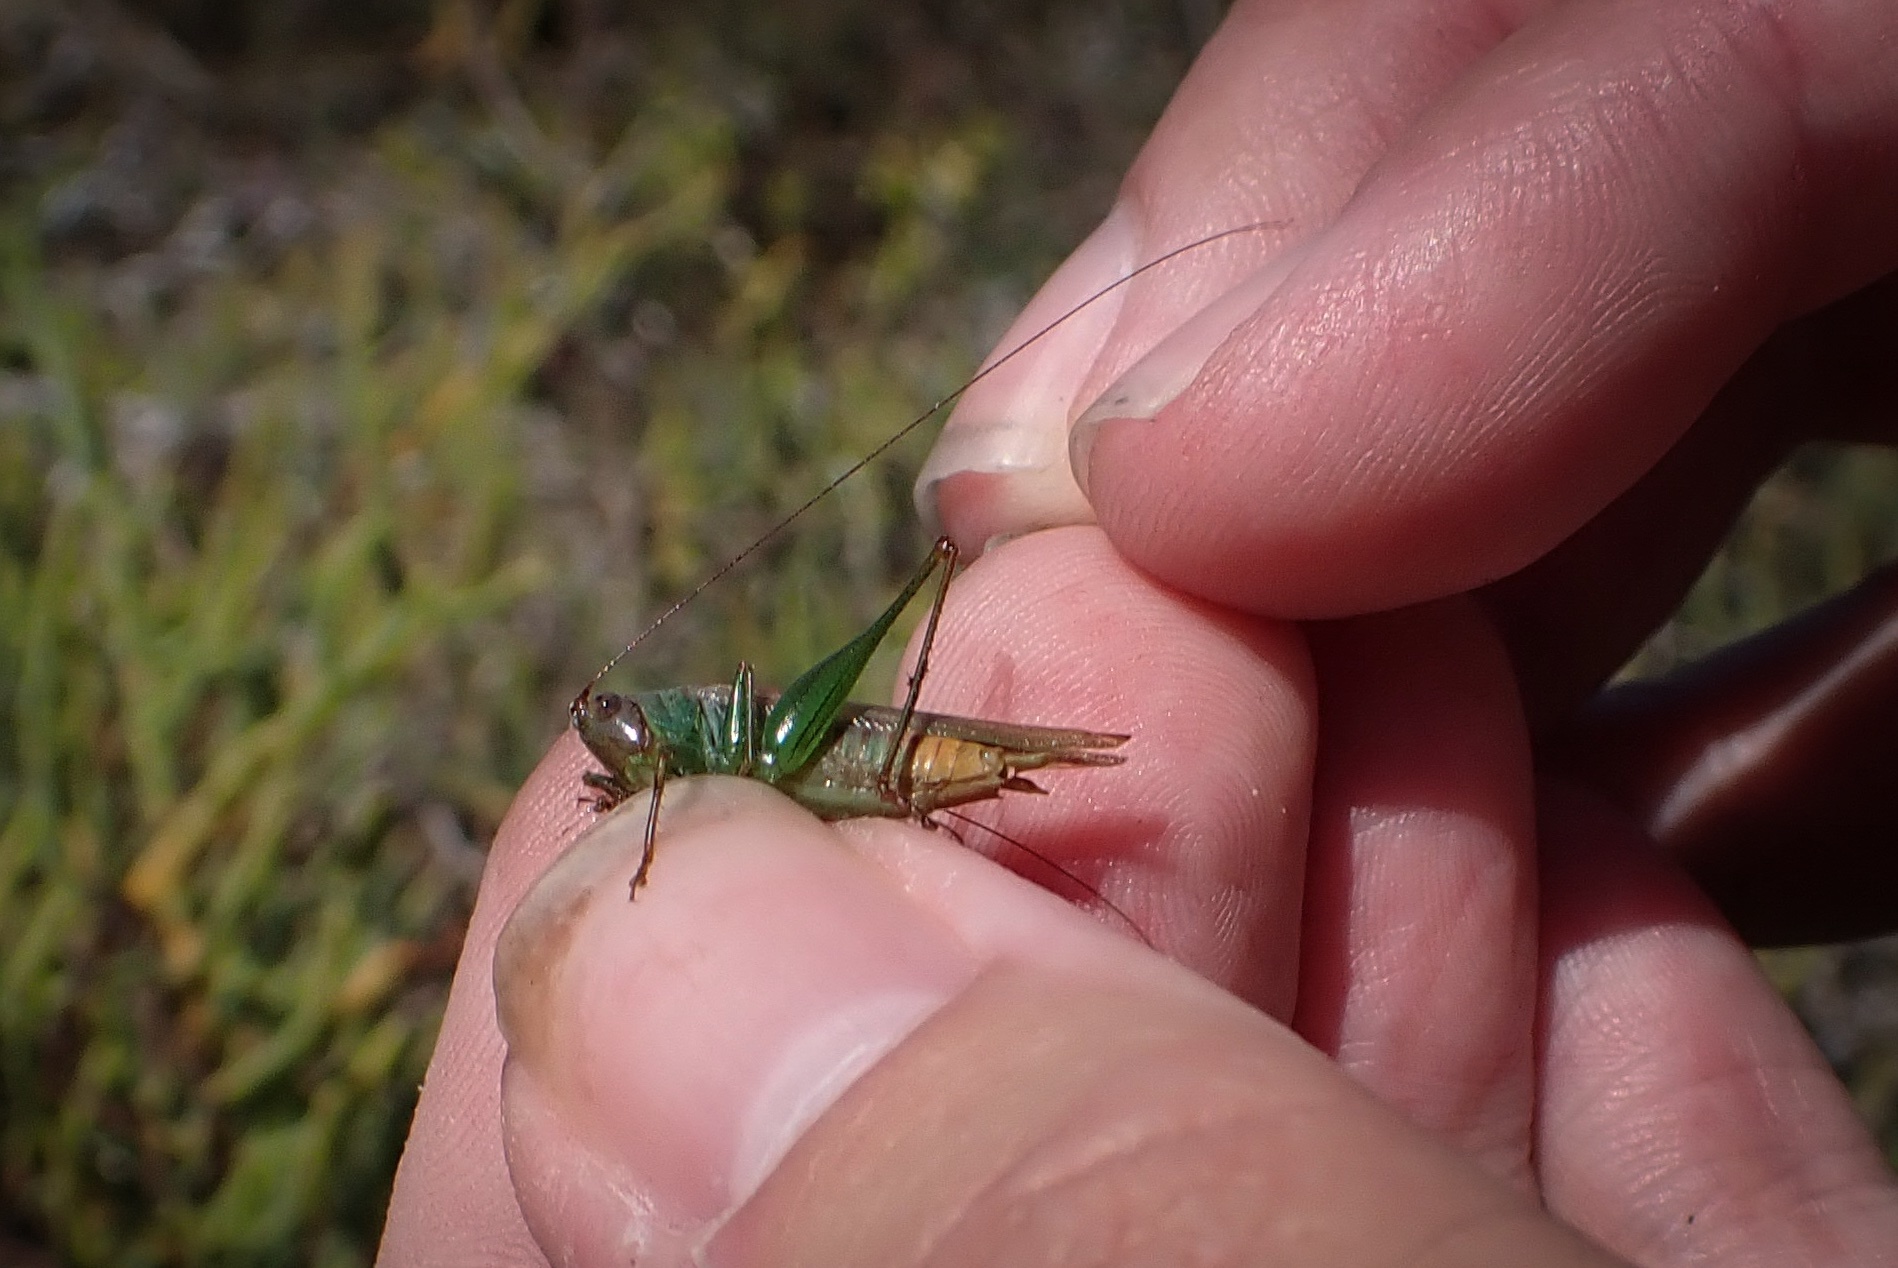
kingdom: Animalia
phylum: Arthropoda
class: Insecta
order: Orthoptera
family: Tettigoniidae
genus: Conocephalus
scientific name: Conocephalus spinosus
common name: San diego meadow katydid
